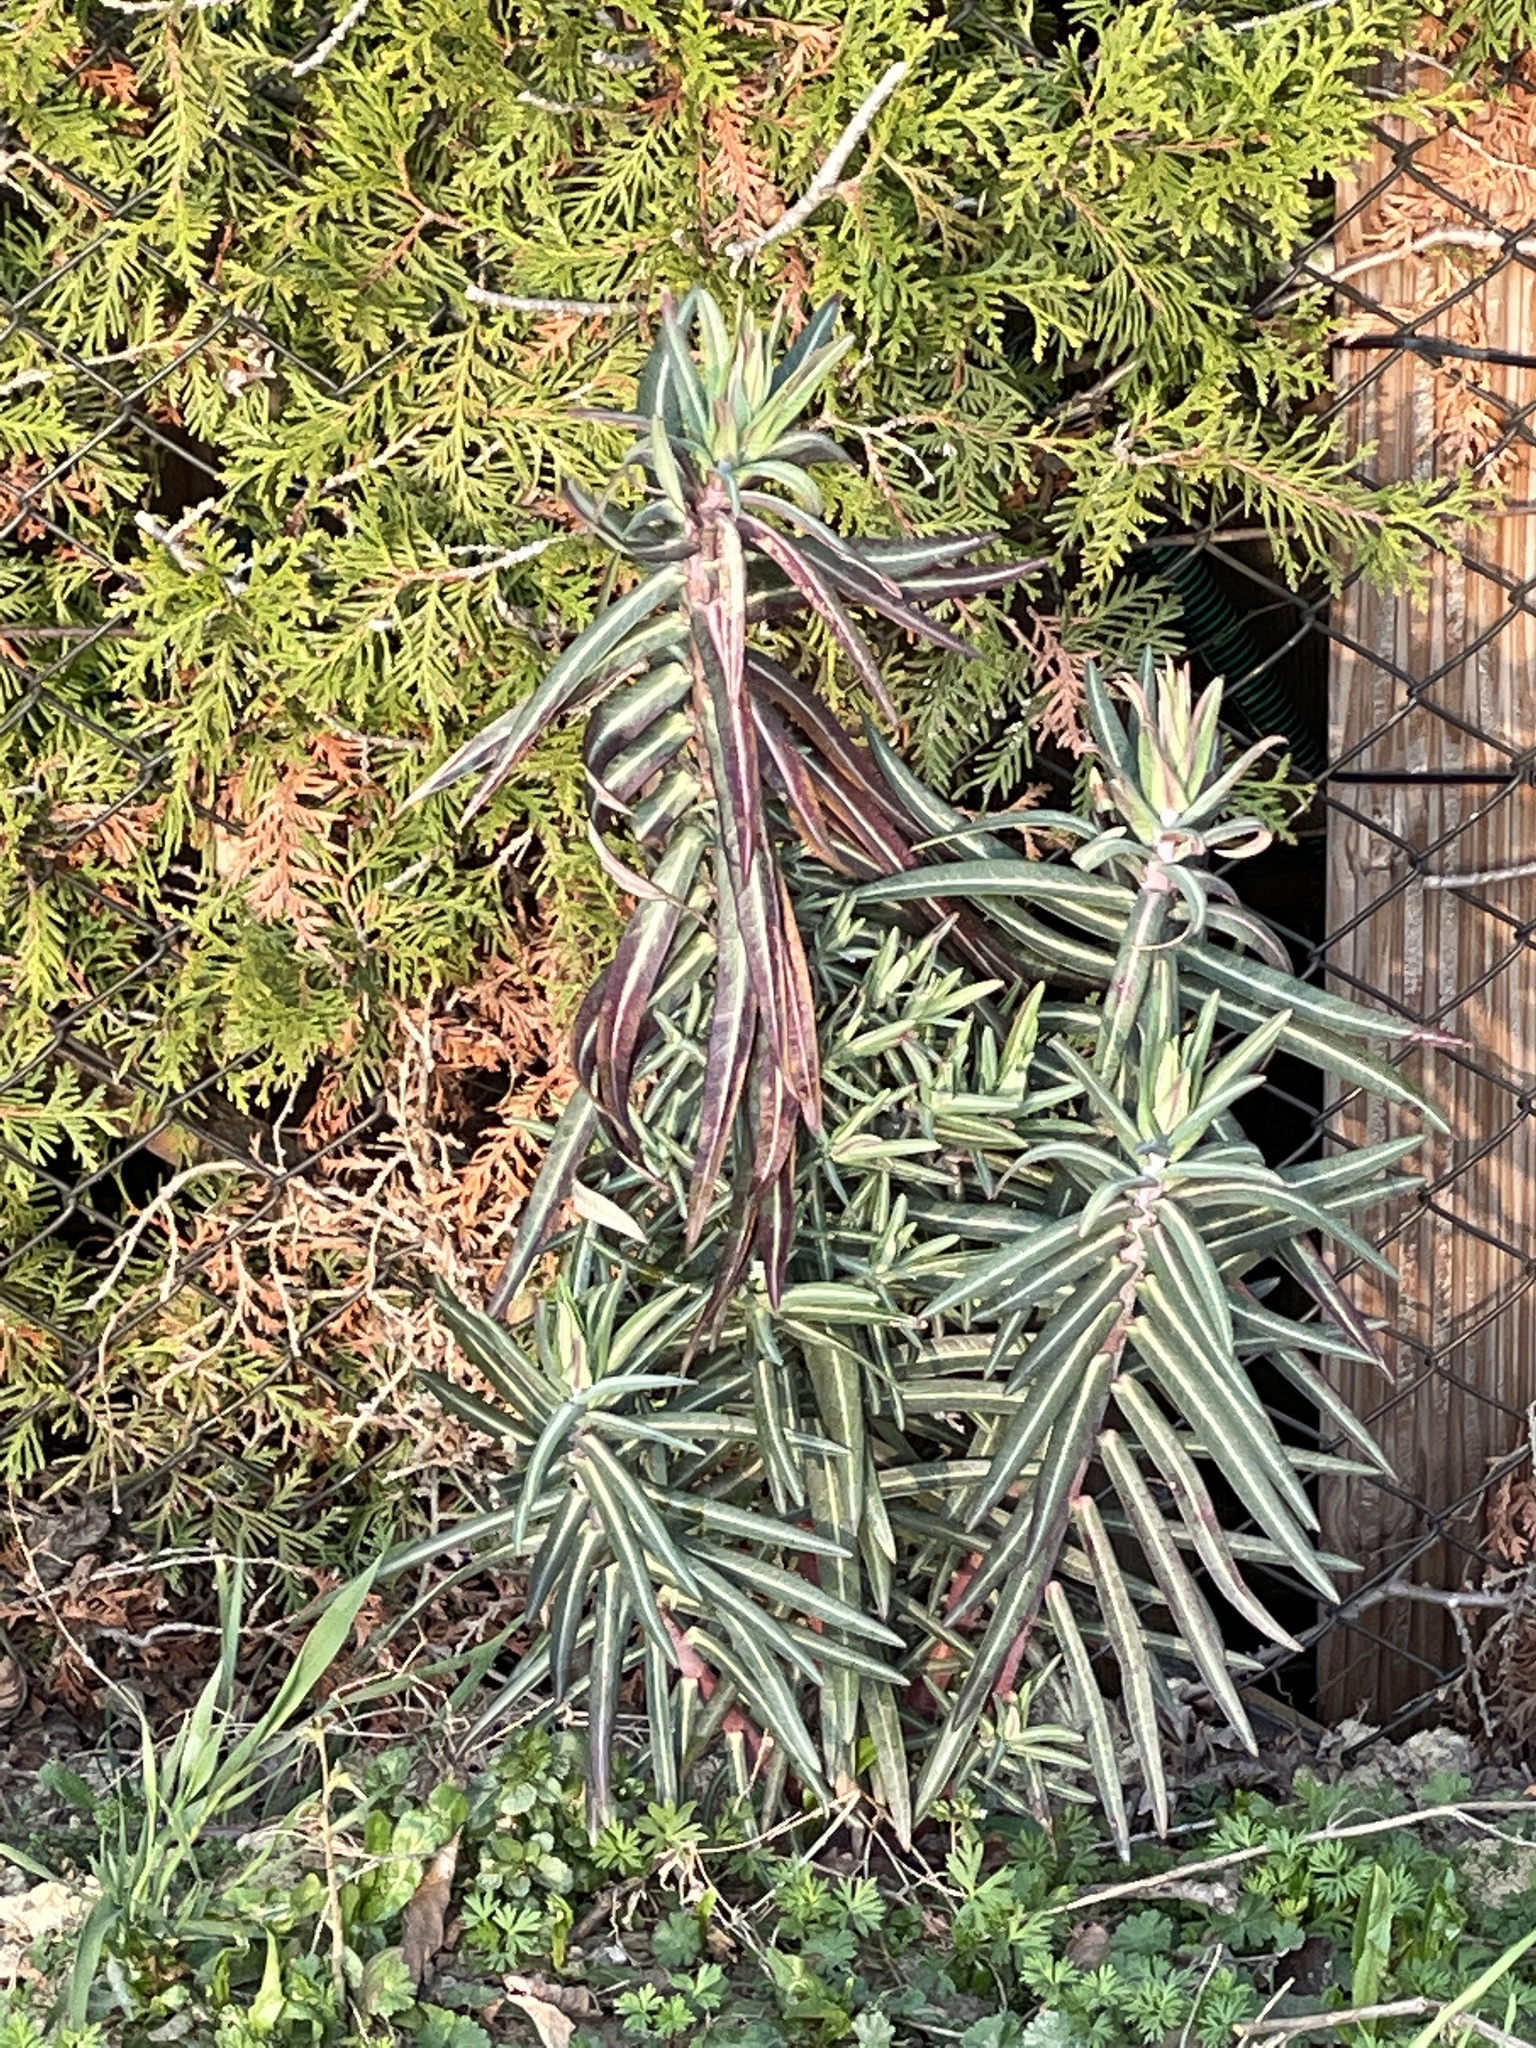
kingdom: Plantae
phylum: Tracheophyta
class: Magnoliopsida
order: Malpighiales
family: Euphorbiaceae
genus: Euphorbia
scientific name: Euphorbia lathyris
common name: Caper spurge
